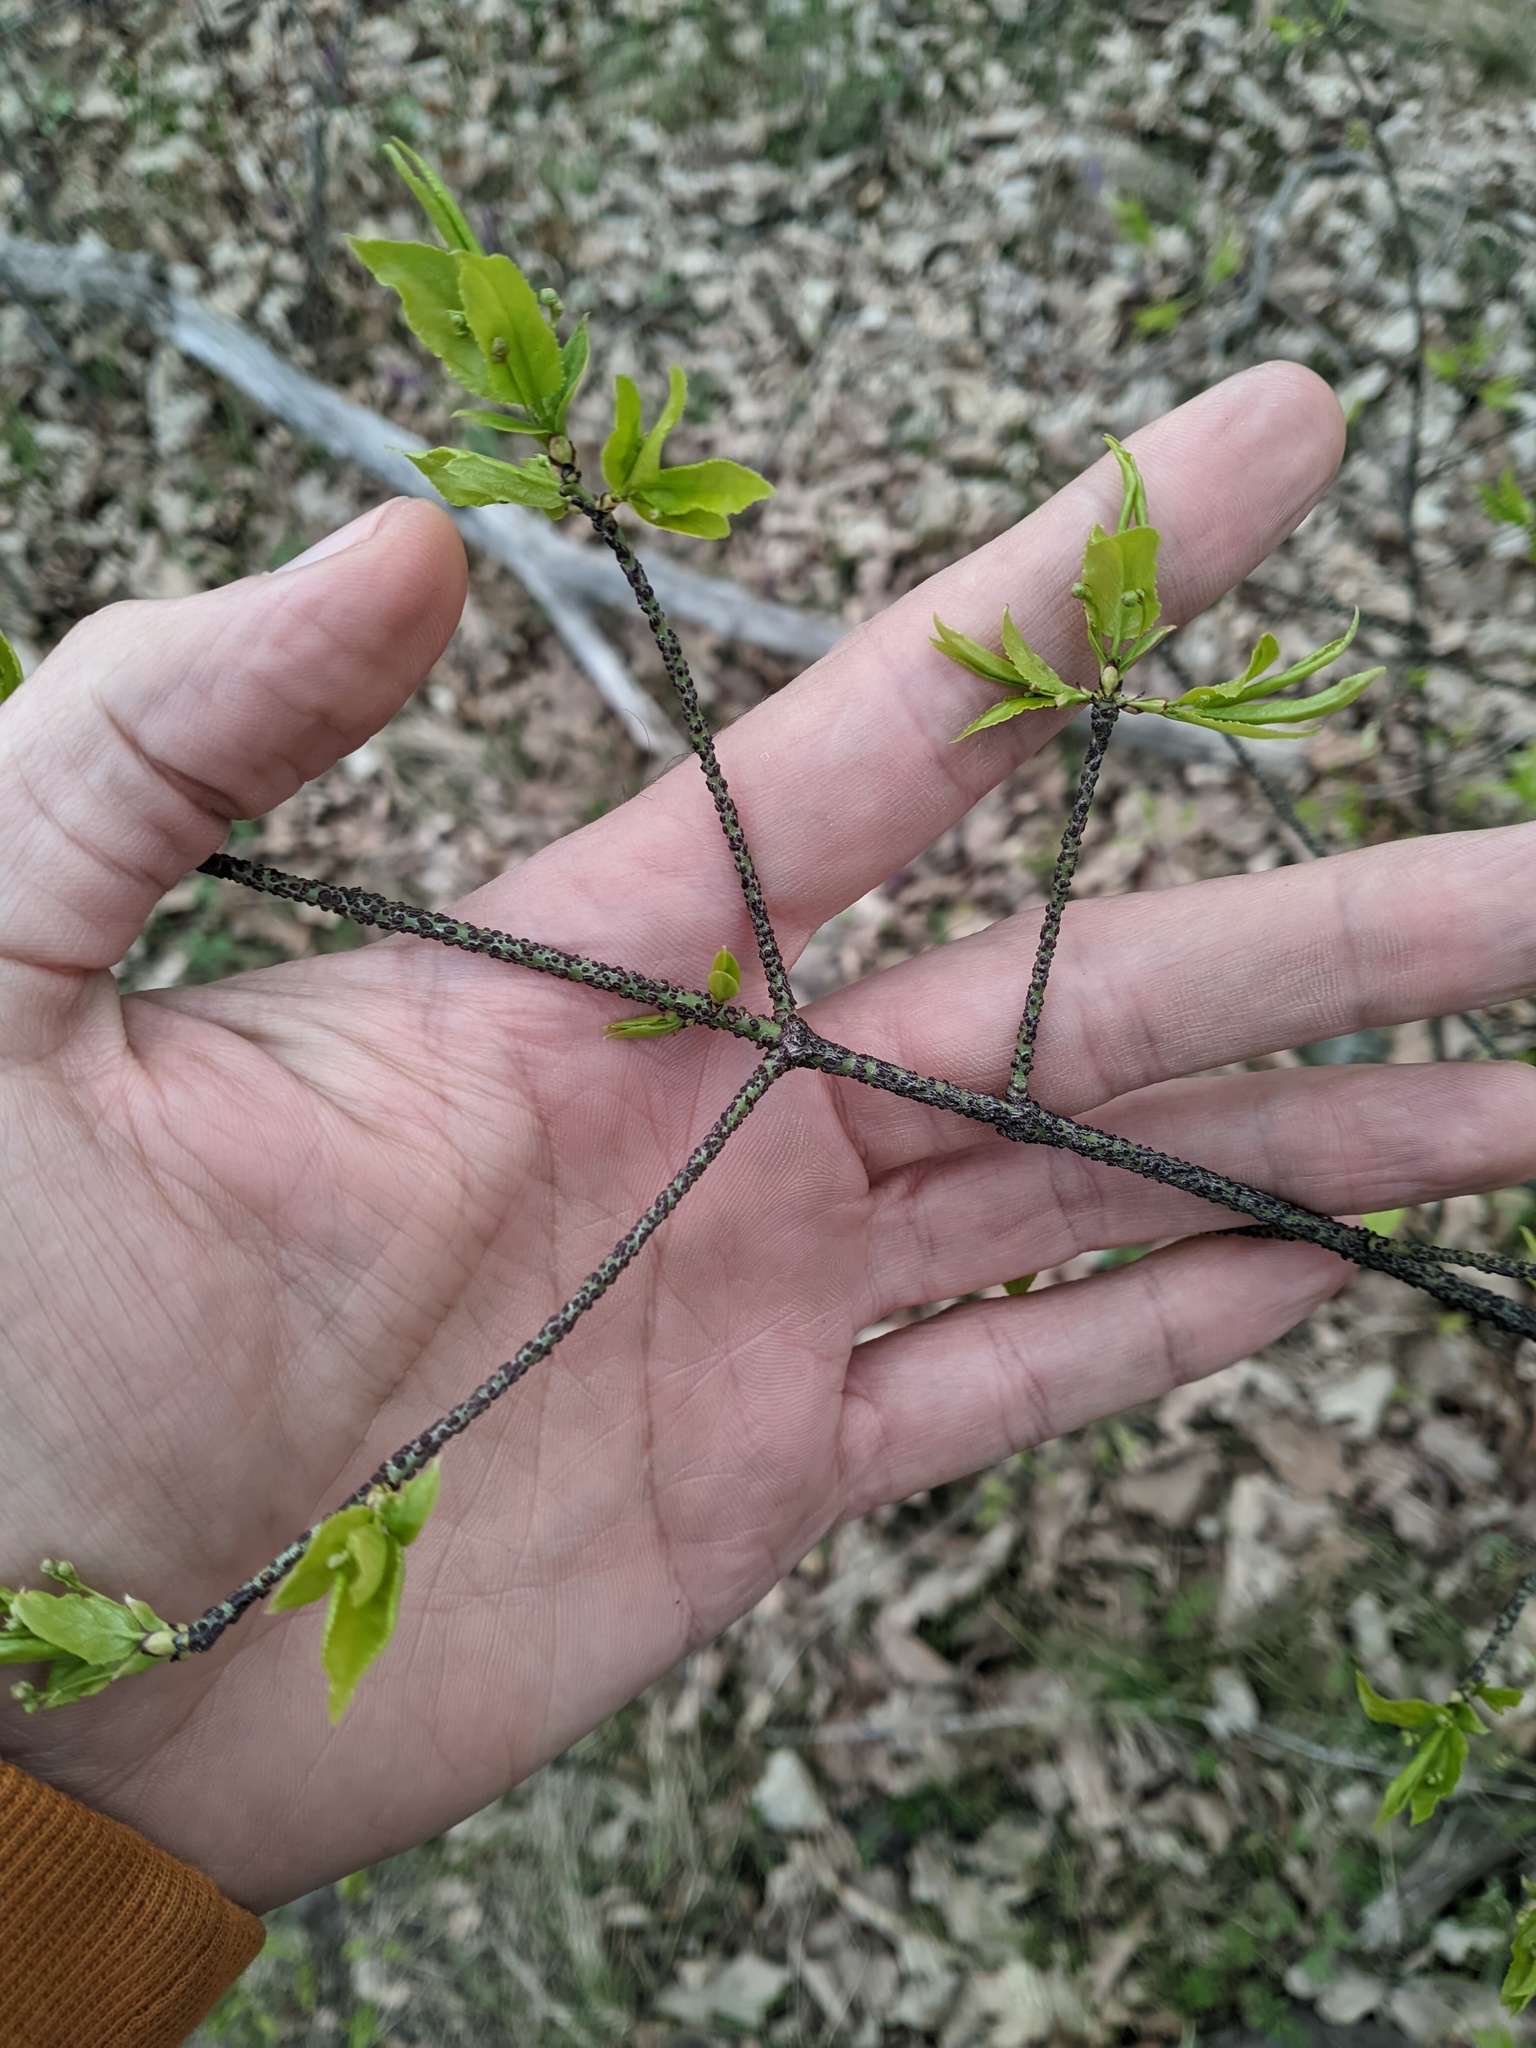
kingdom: Plantae
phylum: Tracheophyta
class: Magnoliopsida
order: Celastrales
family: Celastraceae
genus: Euonymus
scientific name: Euonymus verrucosus
